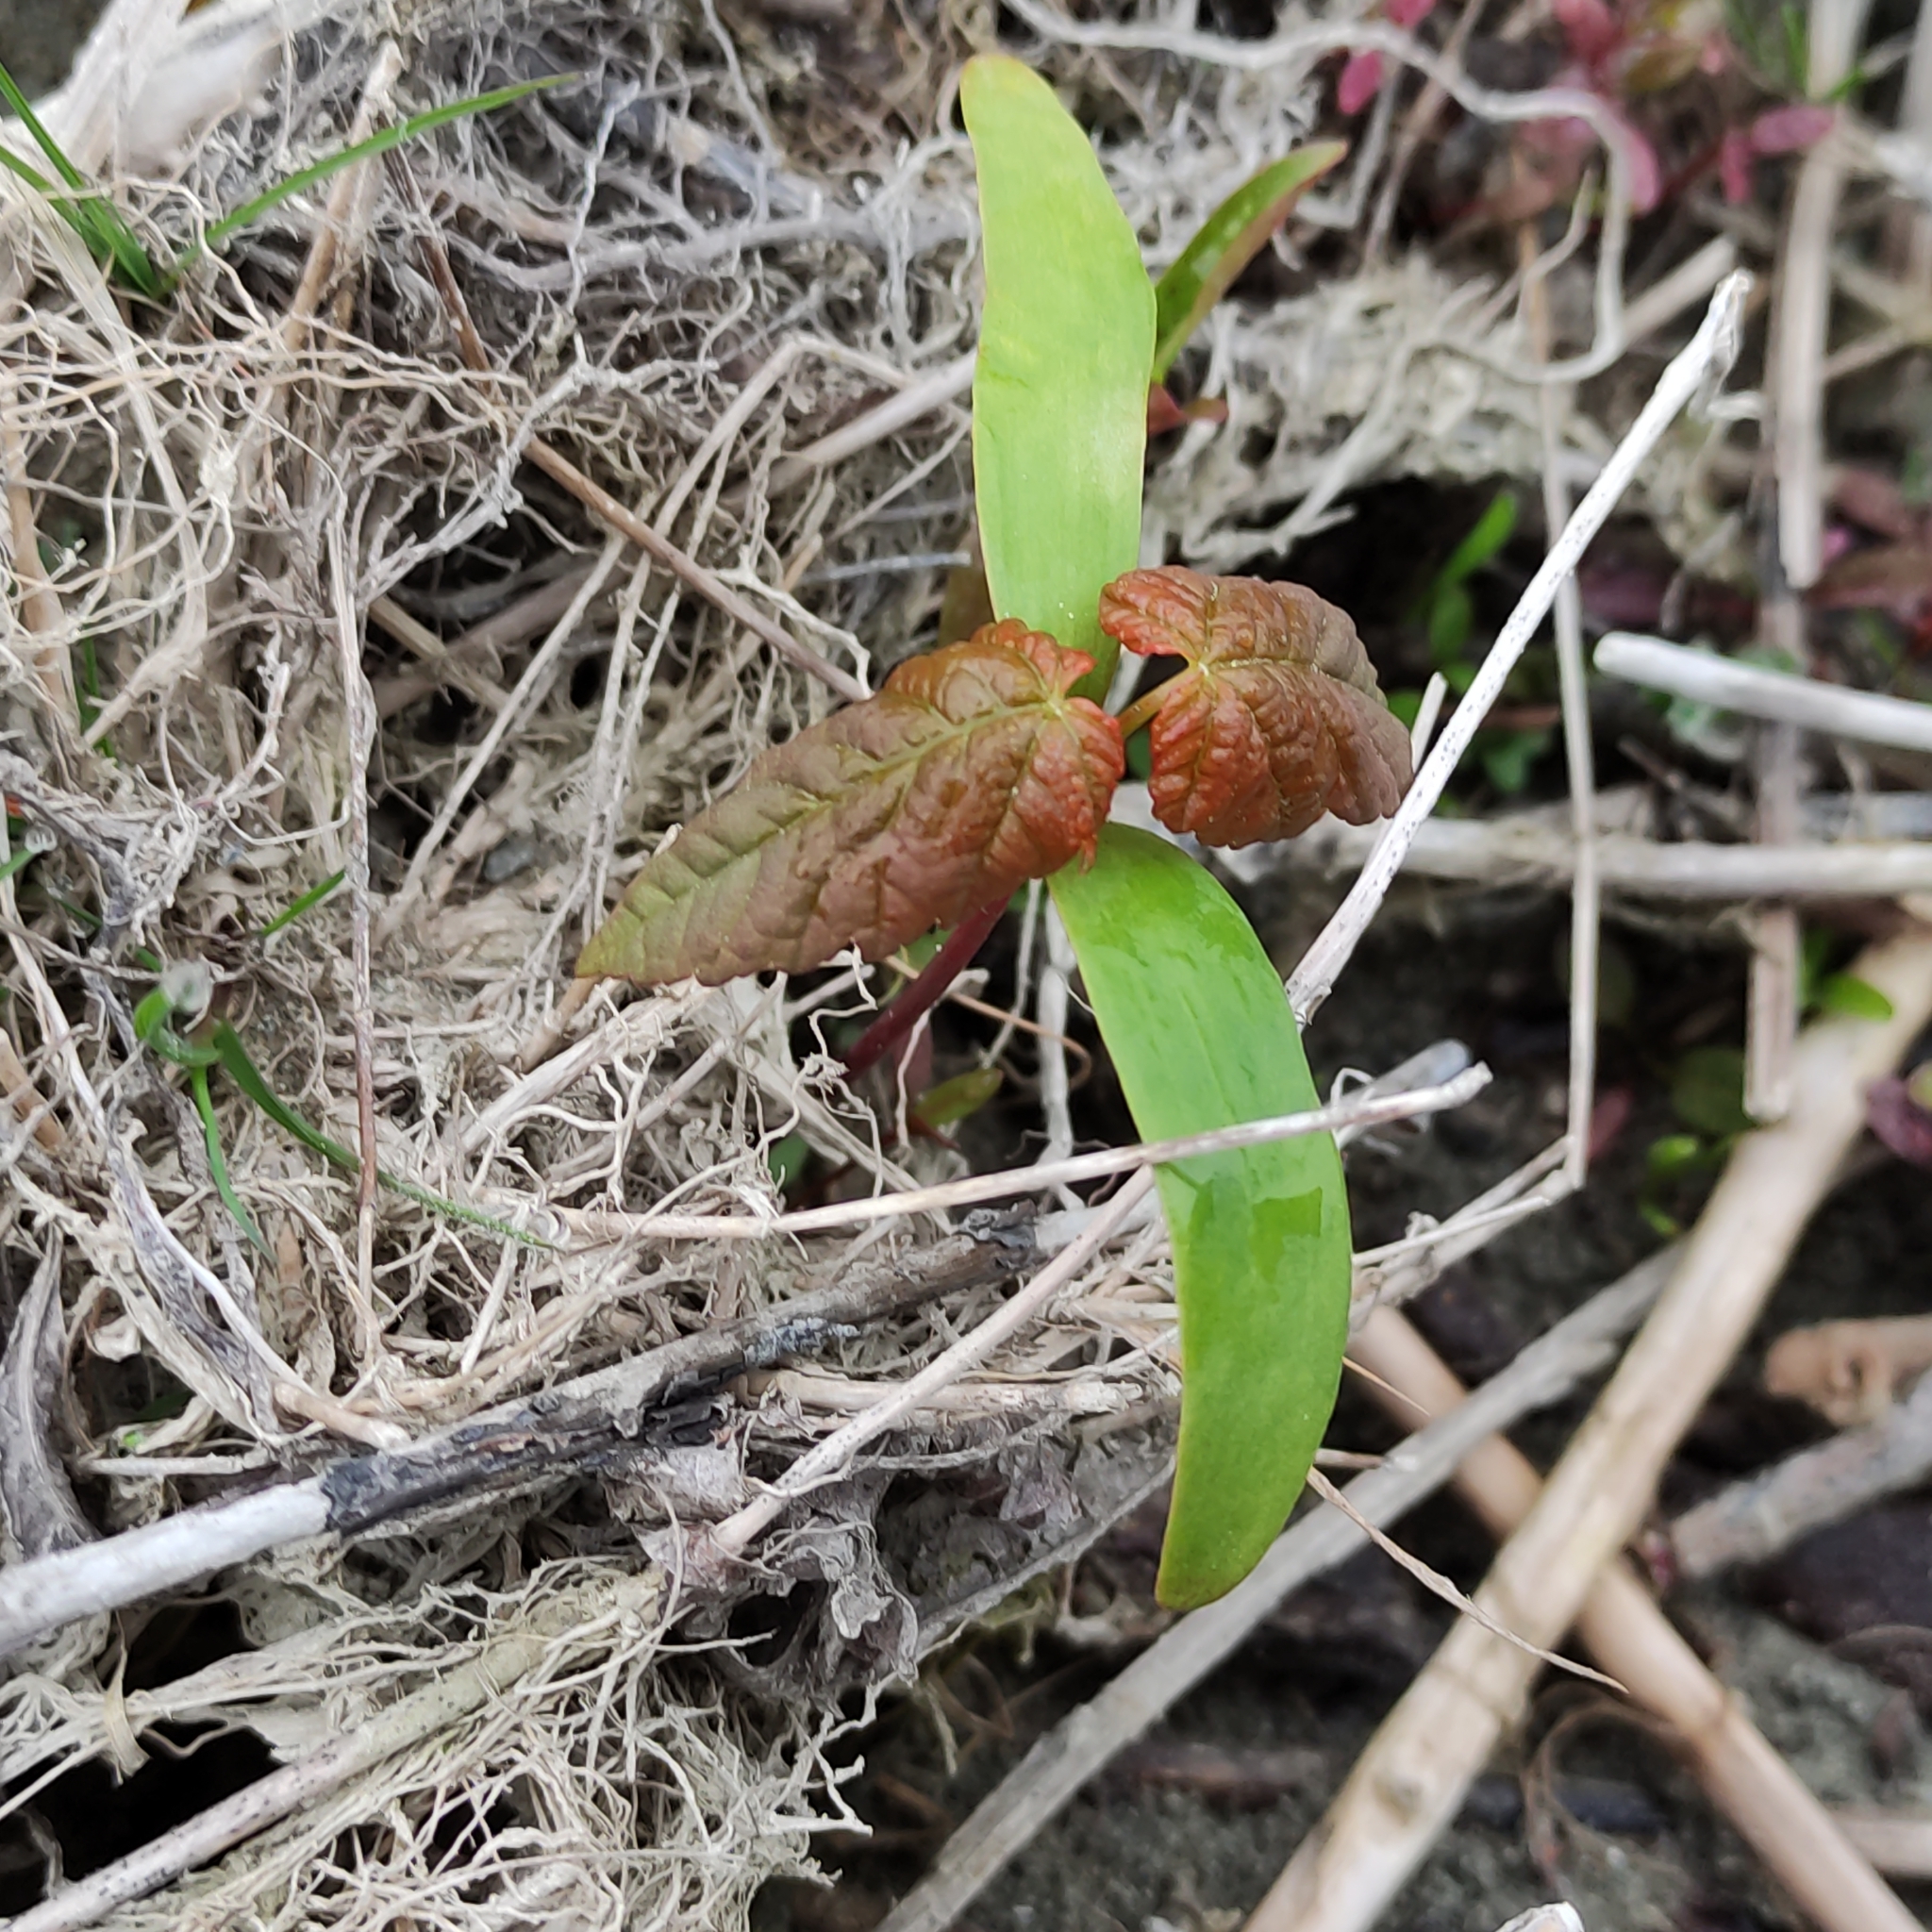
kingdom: Plantae
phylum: Tracheophyta
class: Magnoliopsida
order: Sapindales
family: Sapindaceae
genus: Acer
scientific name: Acer pseudoplatanus
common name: Sycamore
